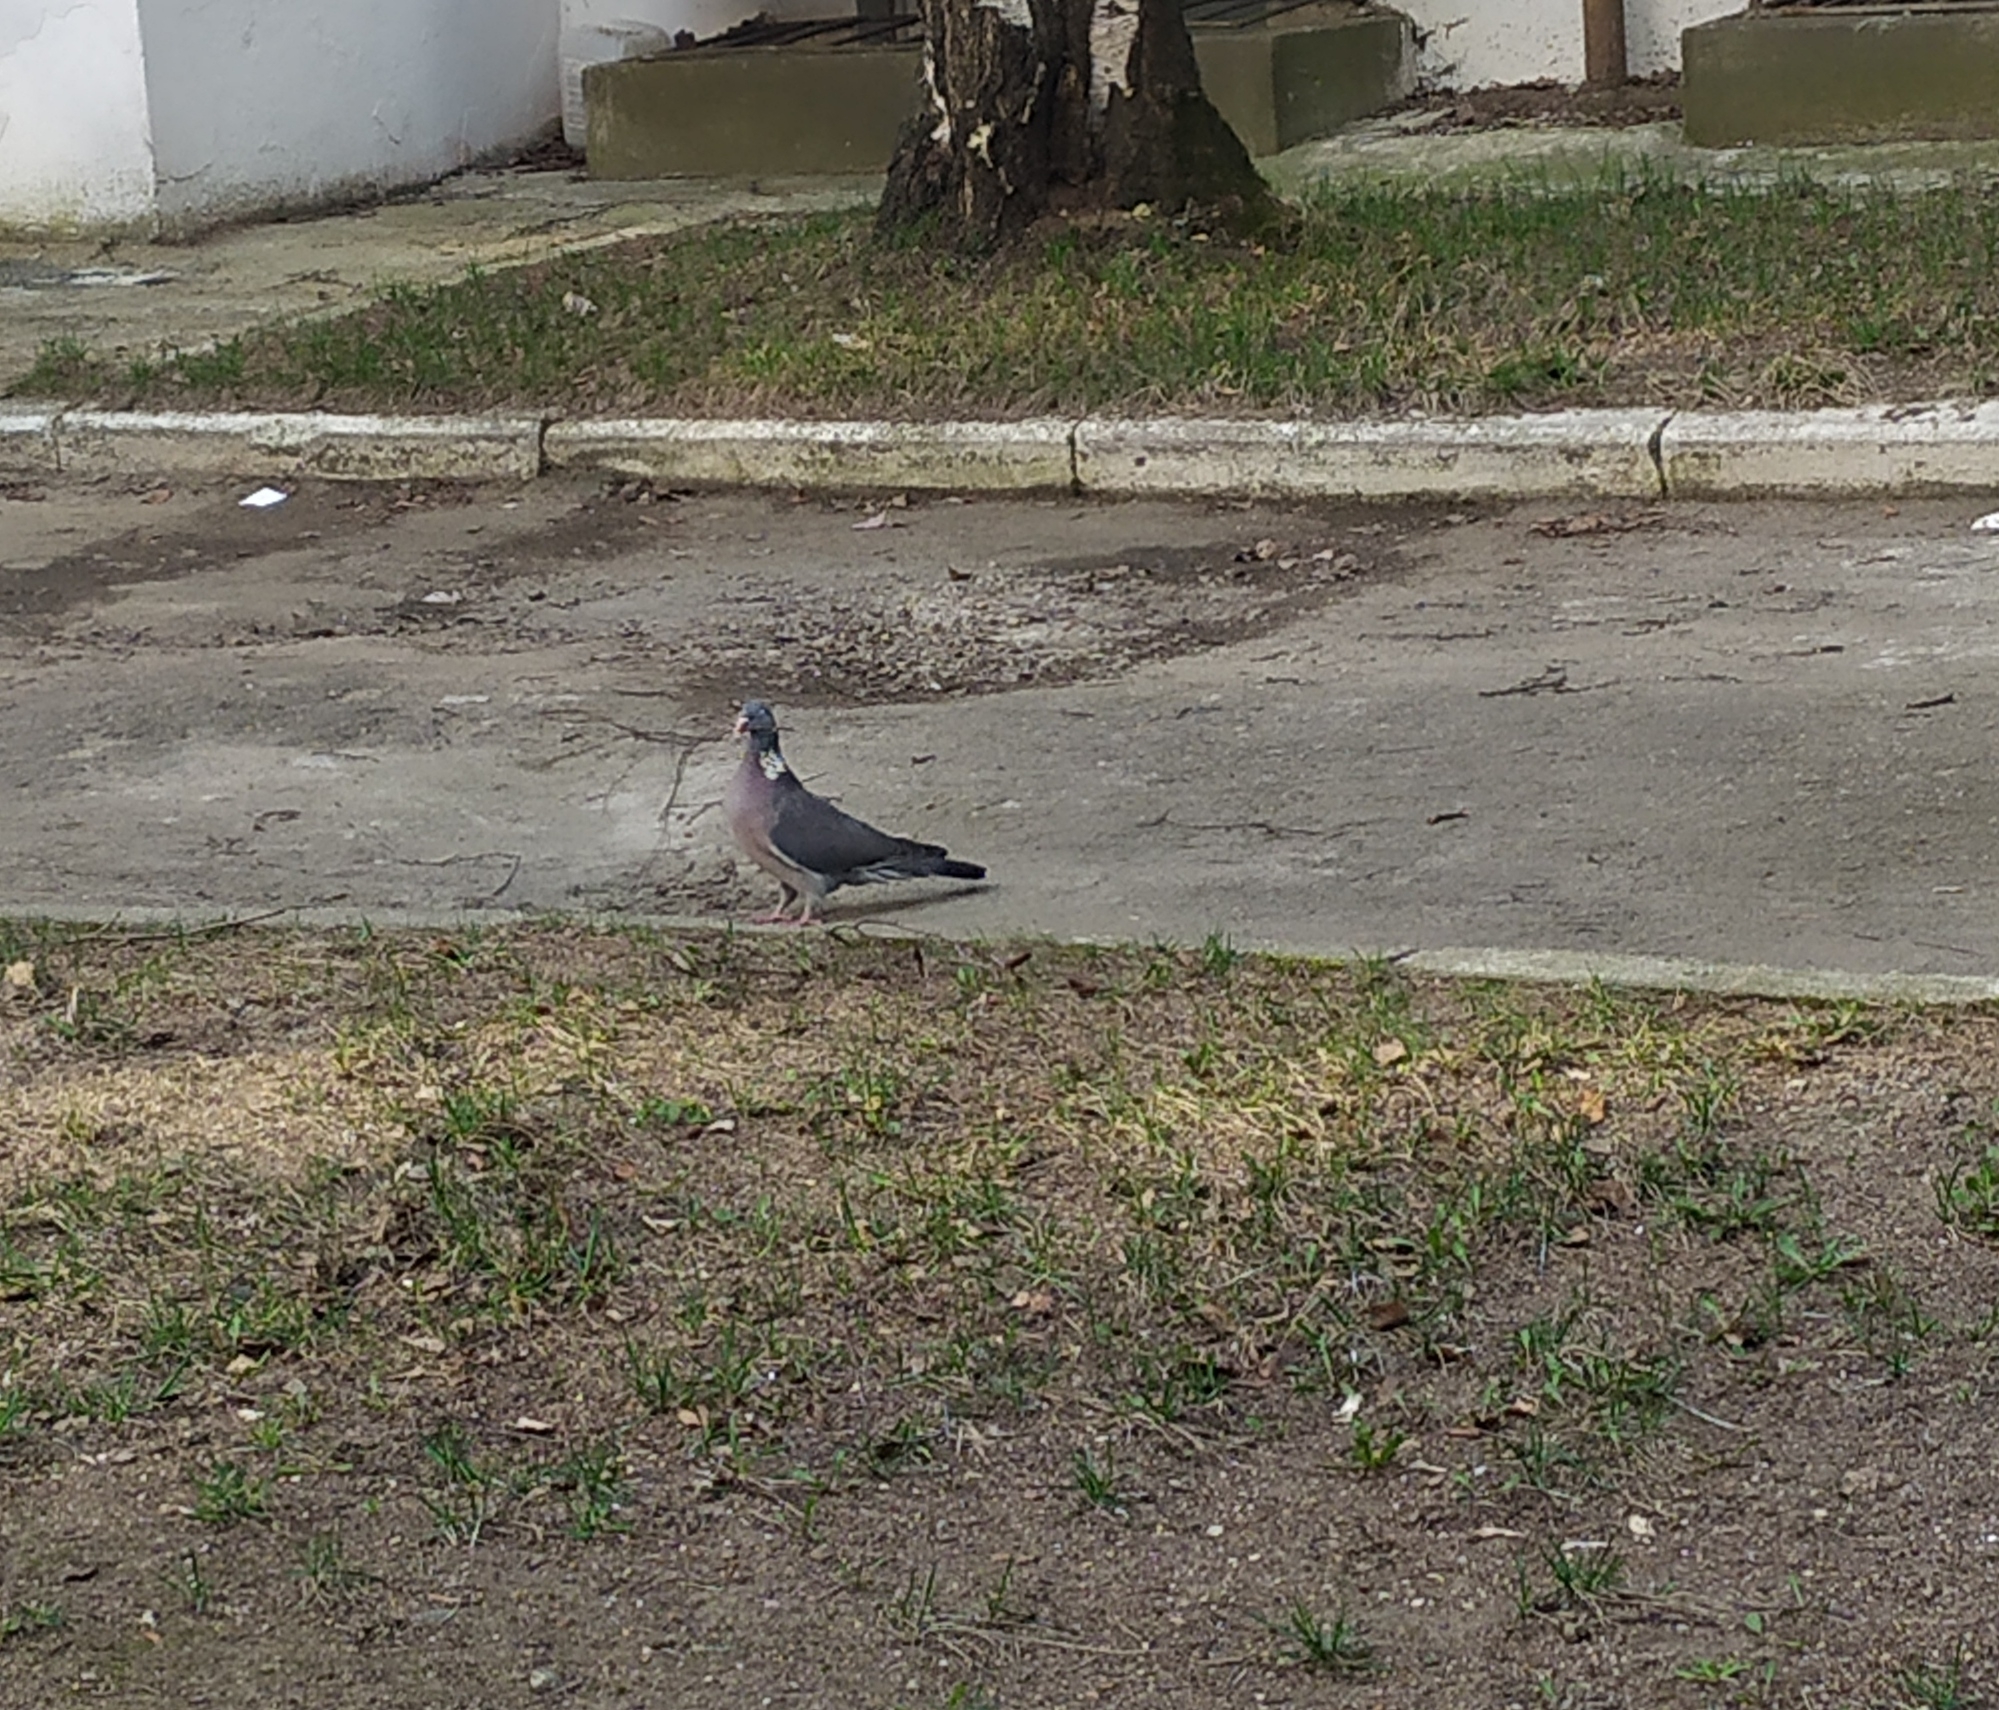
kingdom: Animalia
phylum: Chordata
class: Aves
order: Columbiformes
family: Columbidae
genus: Columba
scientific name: Columba palumbus
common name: Common wood pigeon
